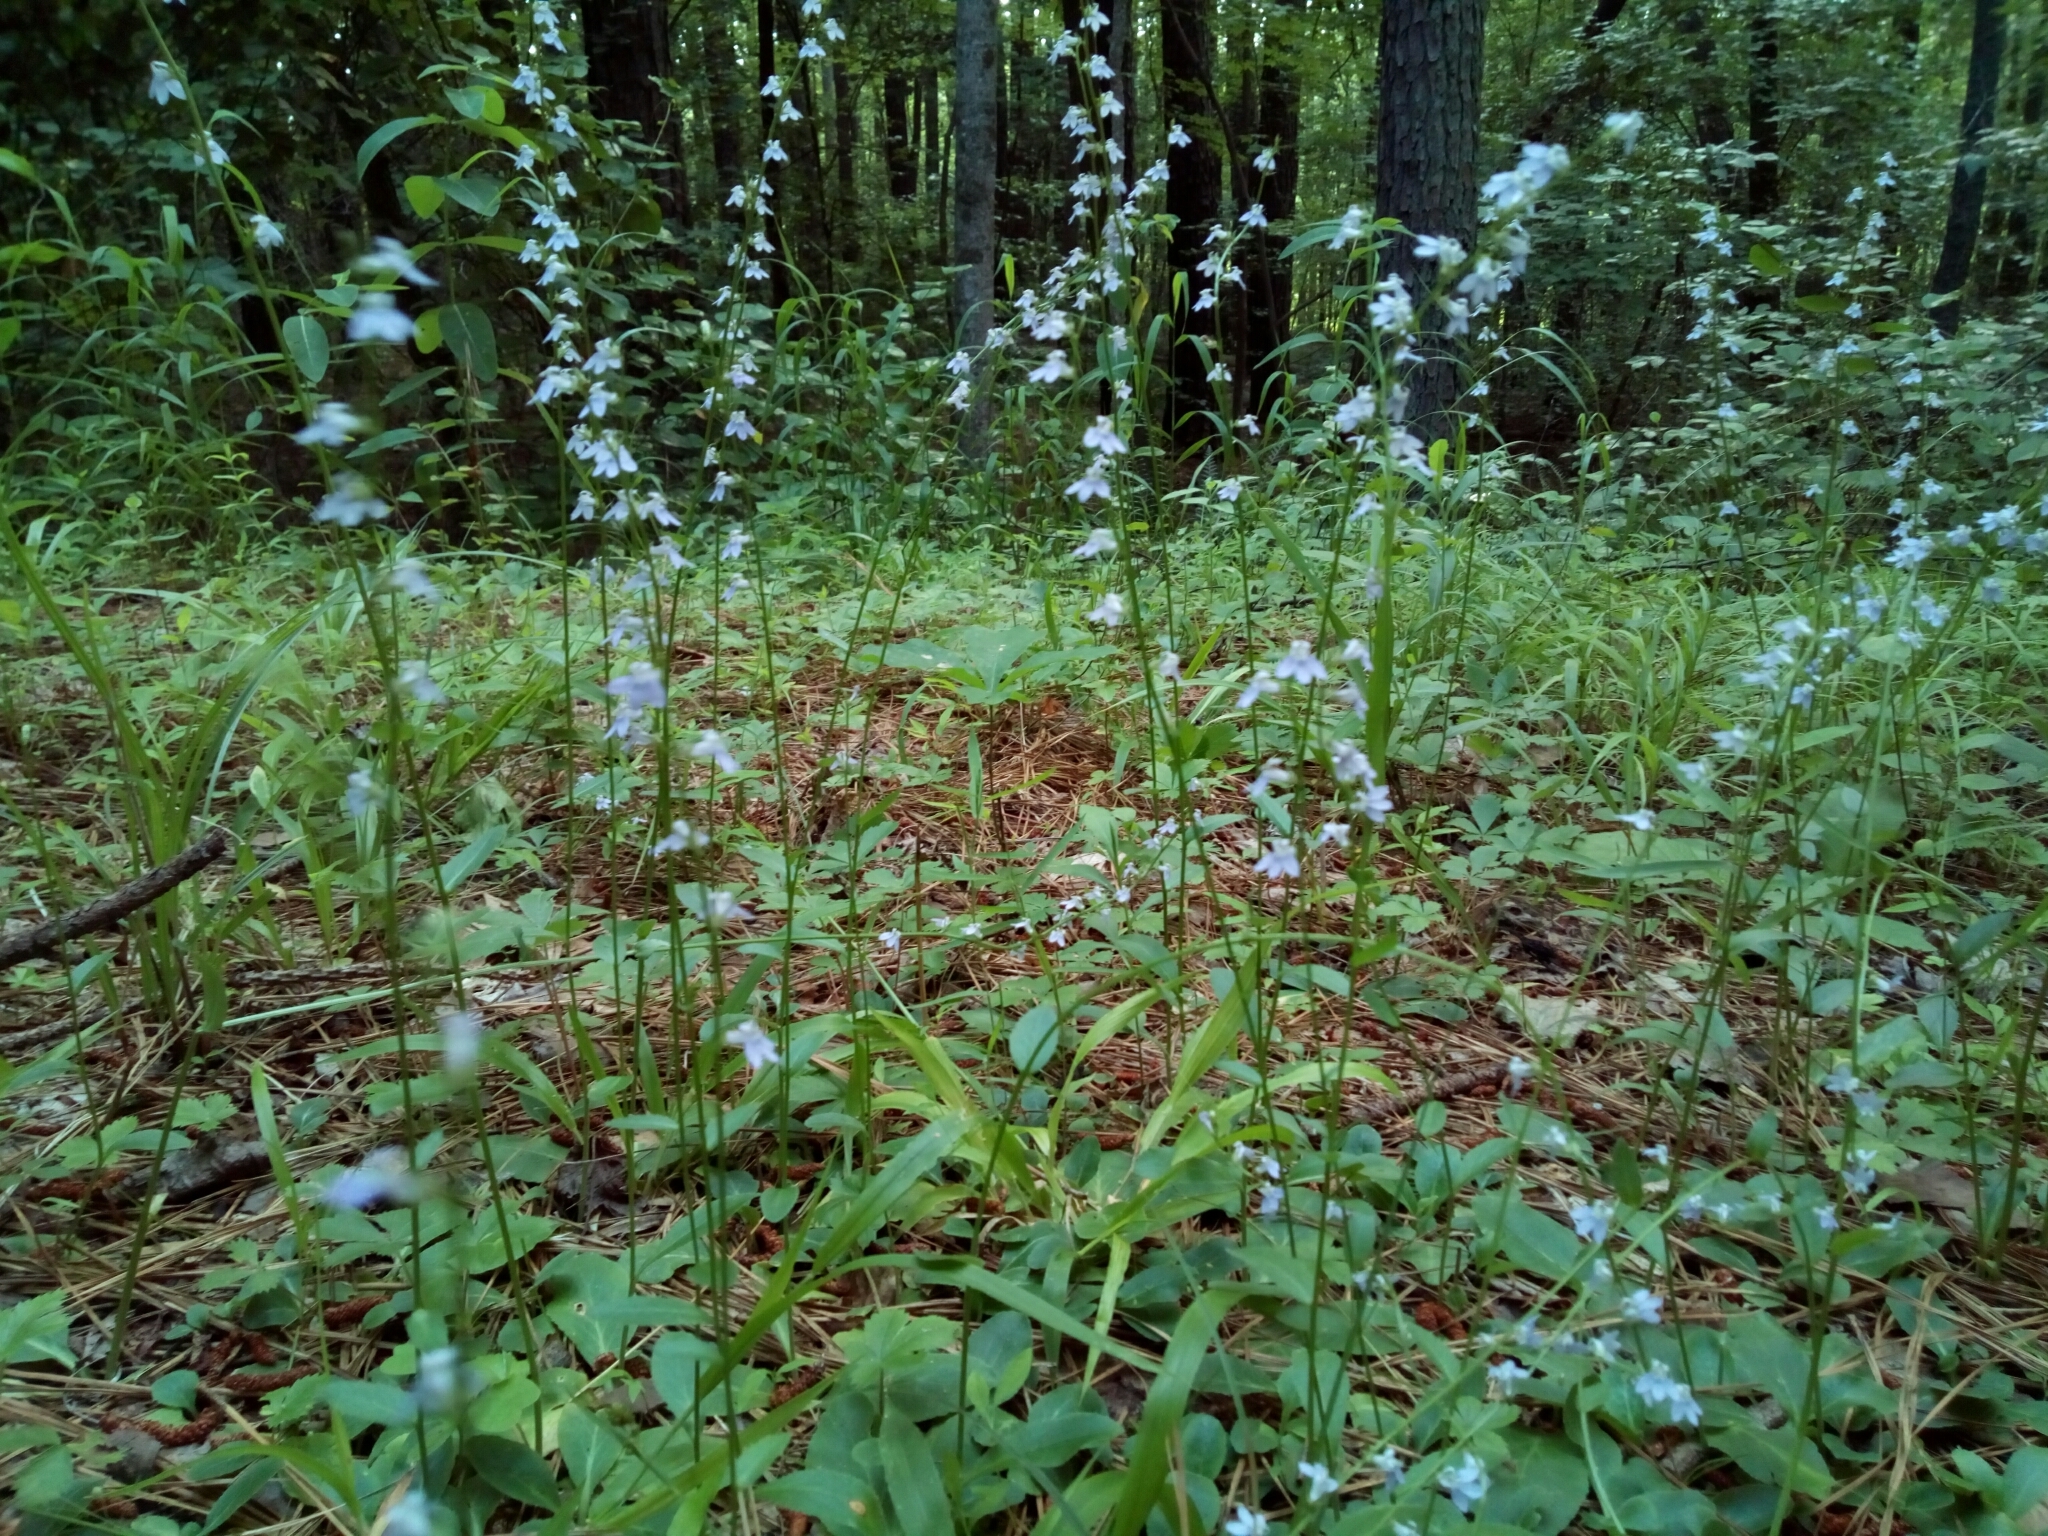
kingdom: Plantae
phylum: Tracheophyta
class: Magnoliopsida
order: Asterales
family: Campanulaceae
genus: Lobelia
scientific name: Lobelia spicata
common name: Pale-spike lobelia
